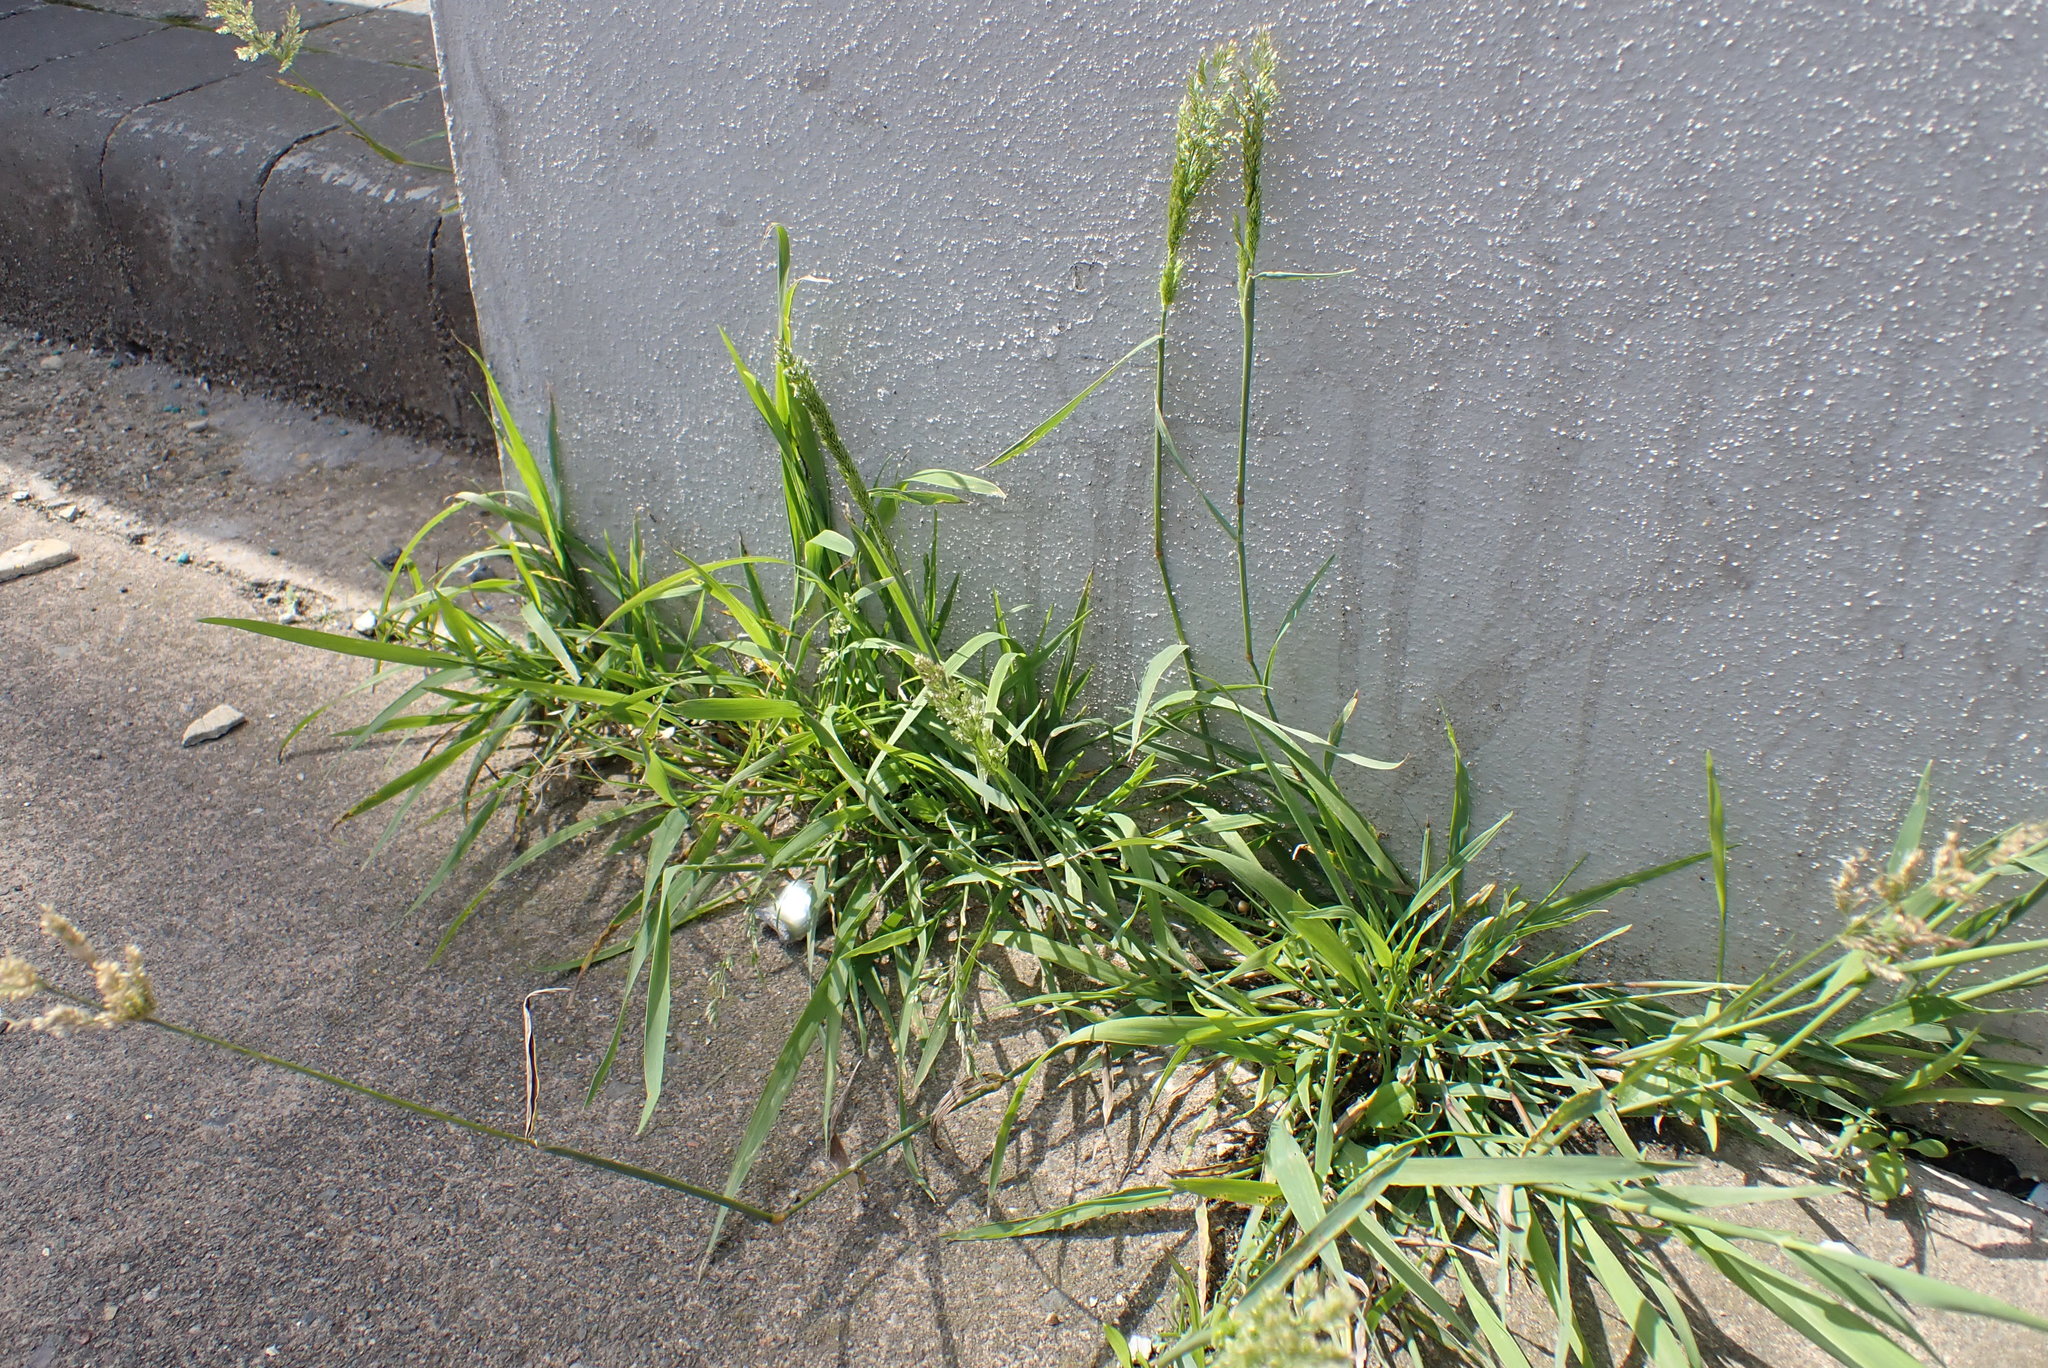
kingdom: Plantae
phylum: Tracheophyta
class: Liliopsida
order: Poales
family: Poaceae
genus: Polypogon
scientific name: Polypogon viridis
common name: Water bent
